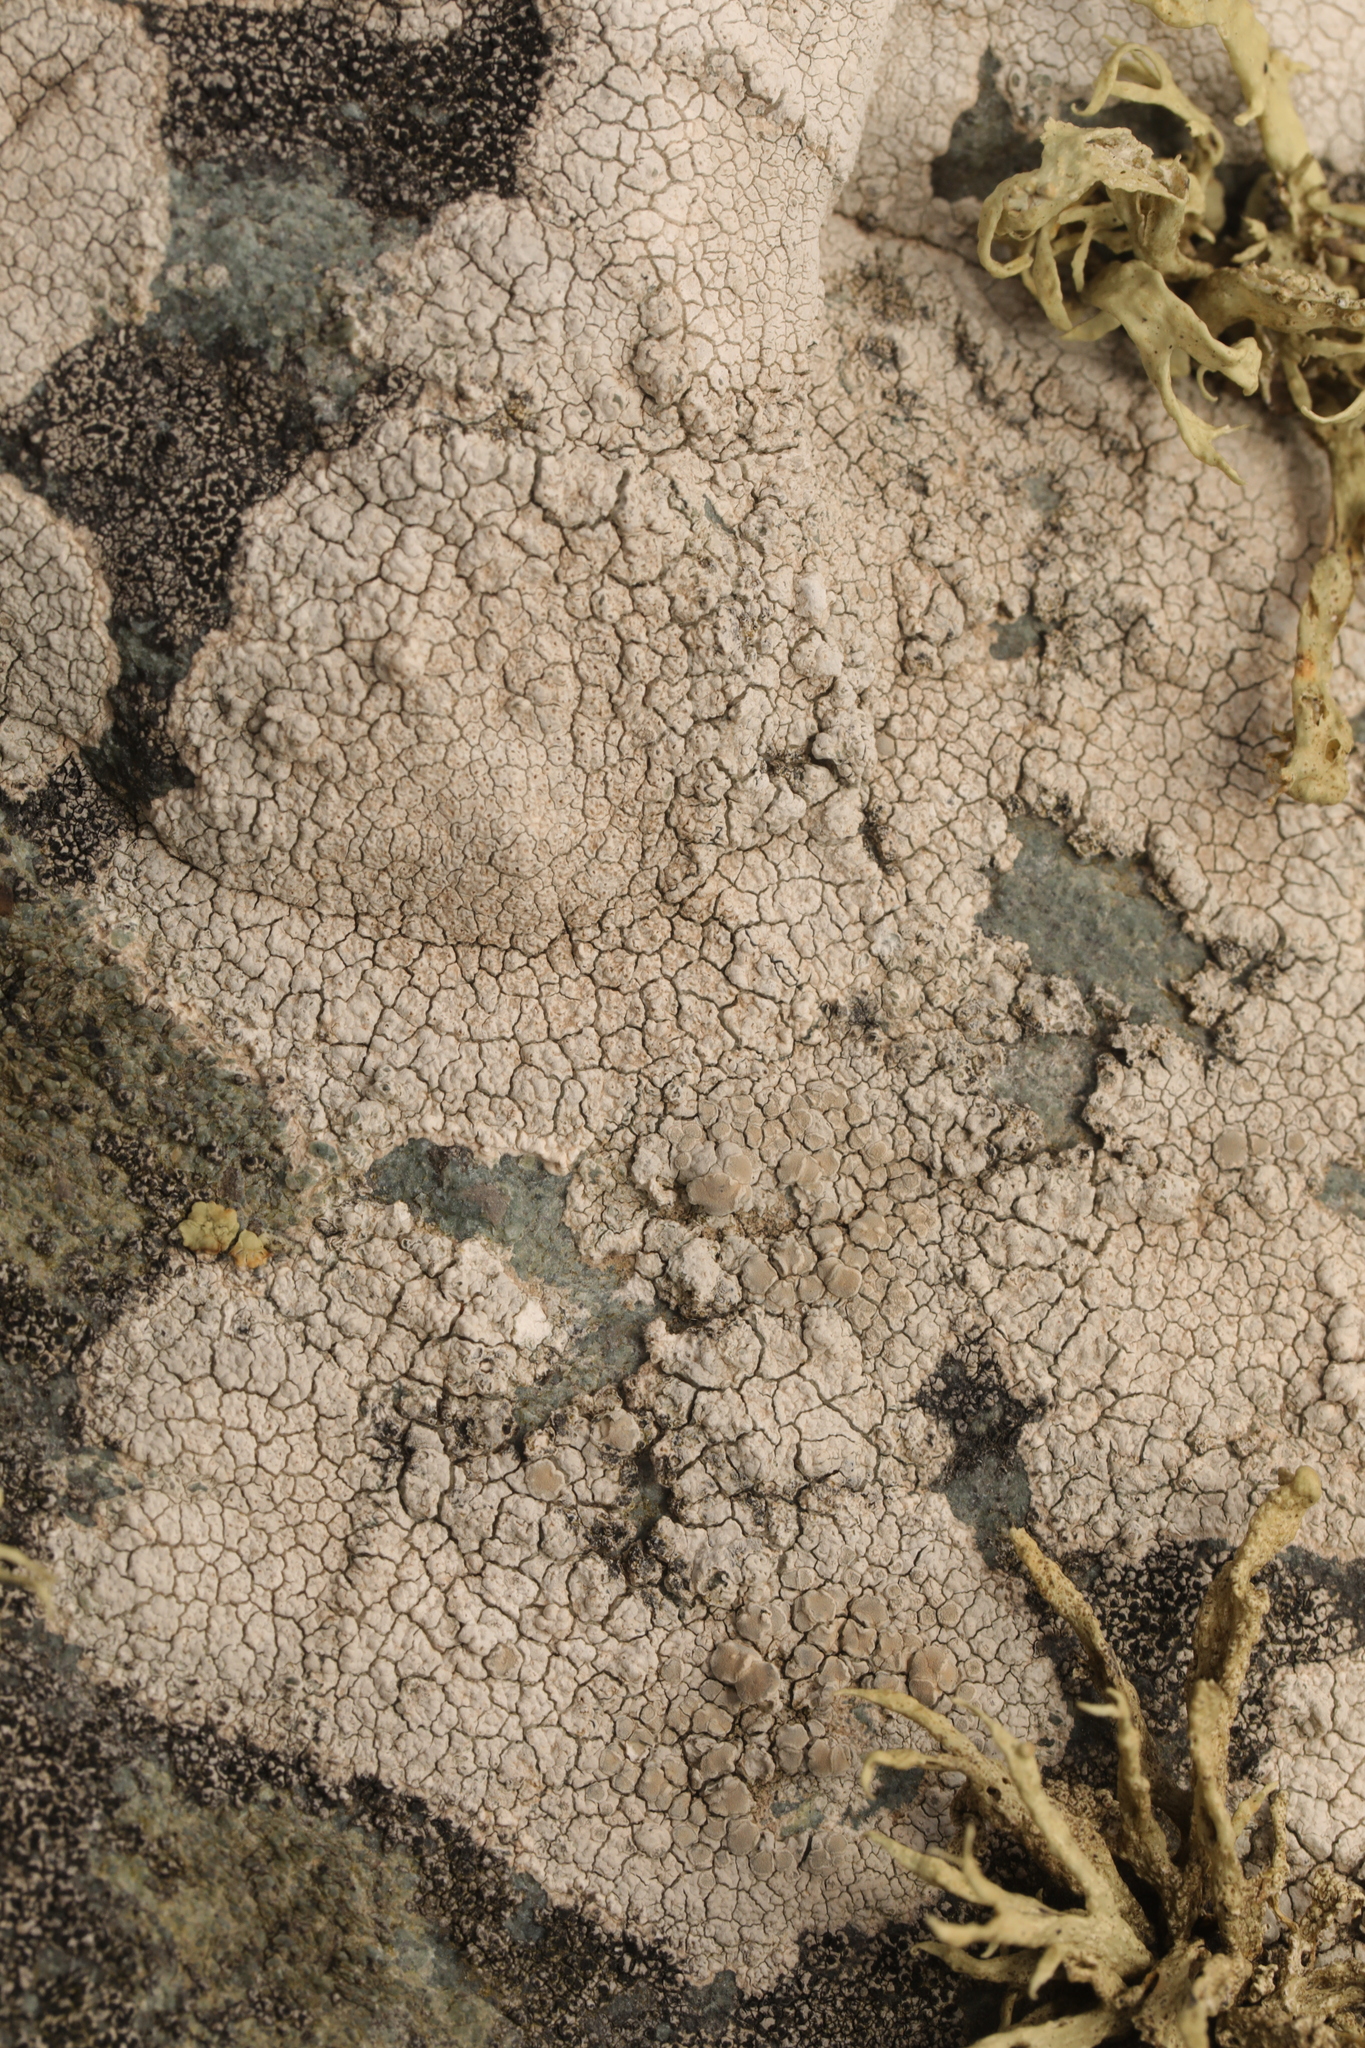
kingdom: Fungi
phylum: Ascomycota
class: Lecanoromycetes
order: Lecanorales
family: Lecanoraceae
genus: Glaucomaria
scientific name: Glaucomaria rupicola
